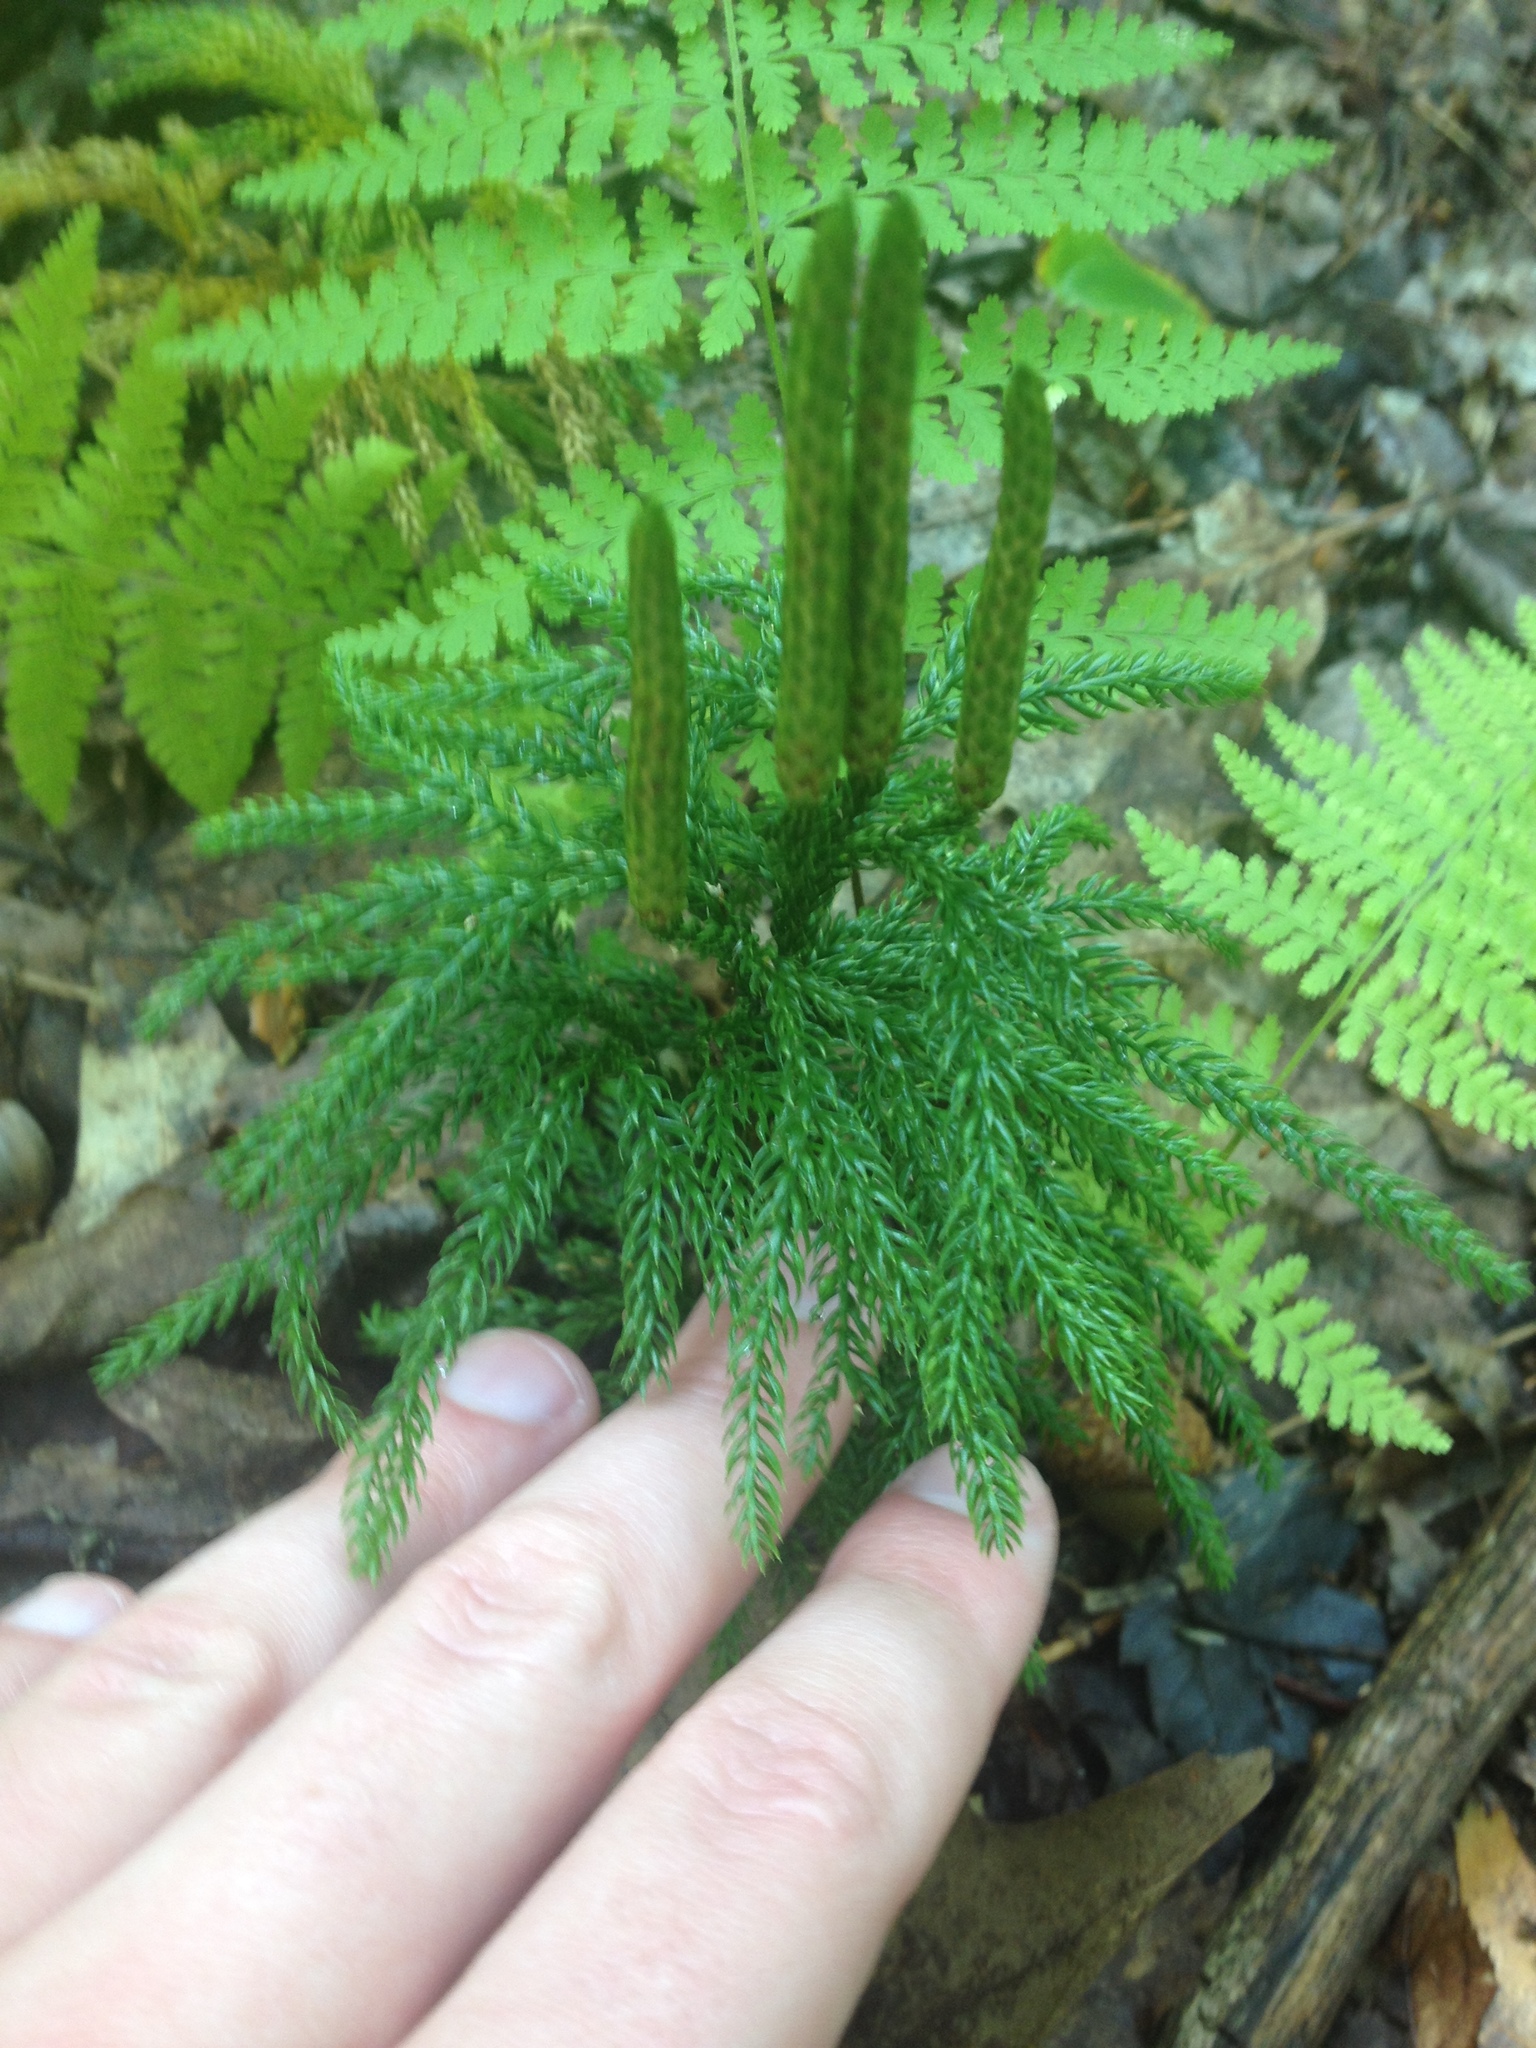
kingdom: Plantae
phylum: Tracheophyta
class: Lycopodiopsida
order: Lycopodiales
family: Lycopodiaceae
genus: Dendrolycopodium
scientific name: Dendrolycopodium obscurum
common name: Common ground-pine
